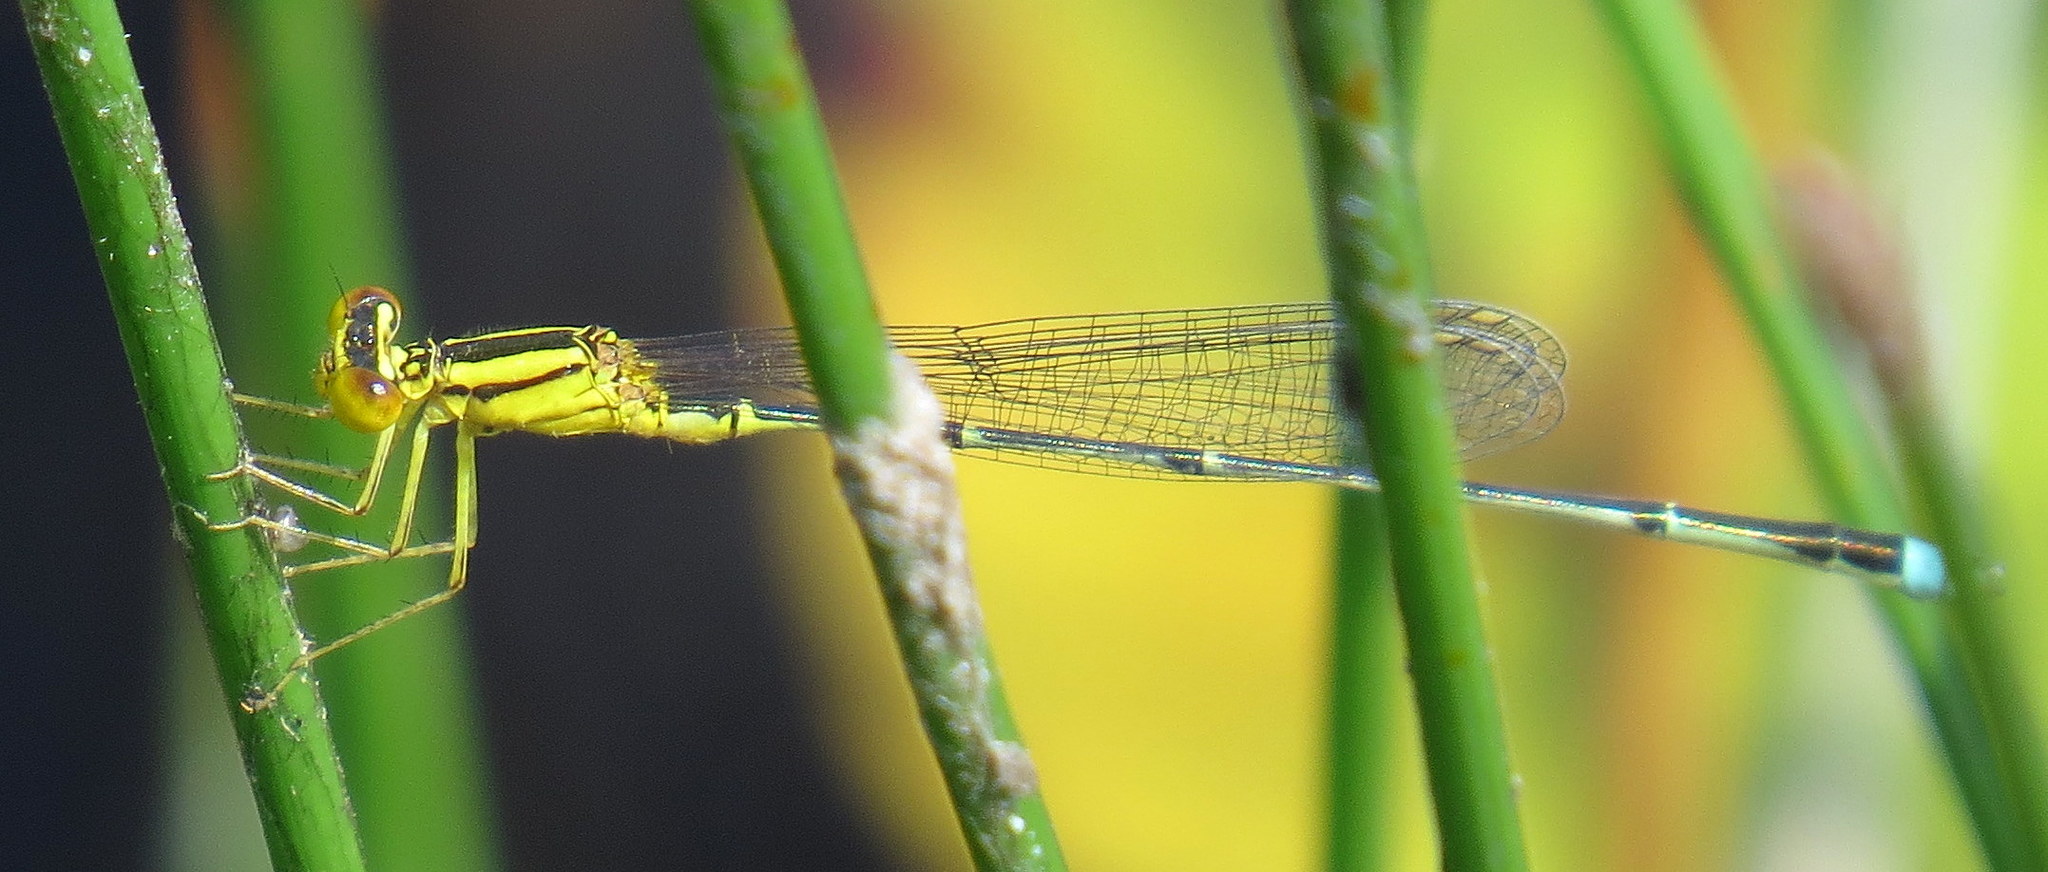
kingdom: Animalia
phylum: Arthropoda
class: Insecta
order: Odonata
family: Coenagrionidae
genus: Enallagma
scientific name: Enallagma vesperum
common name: Vesper bluet
